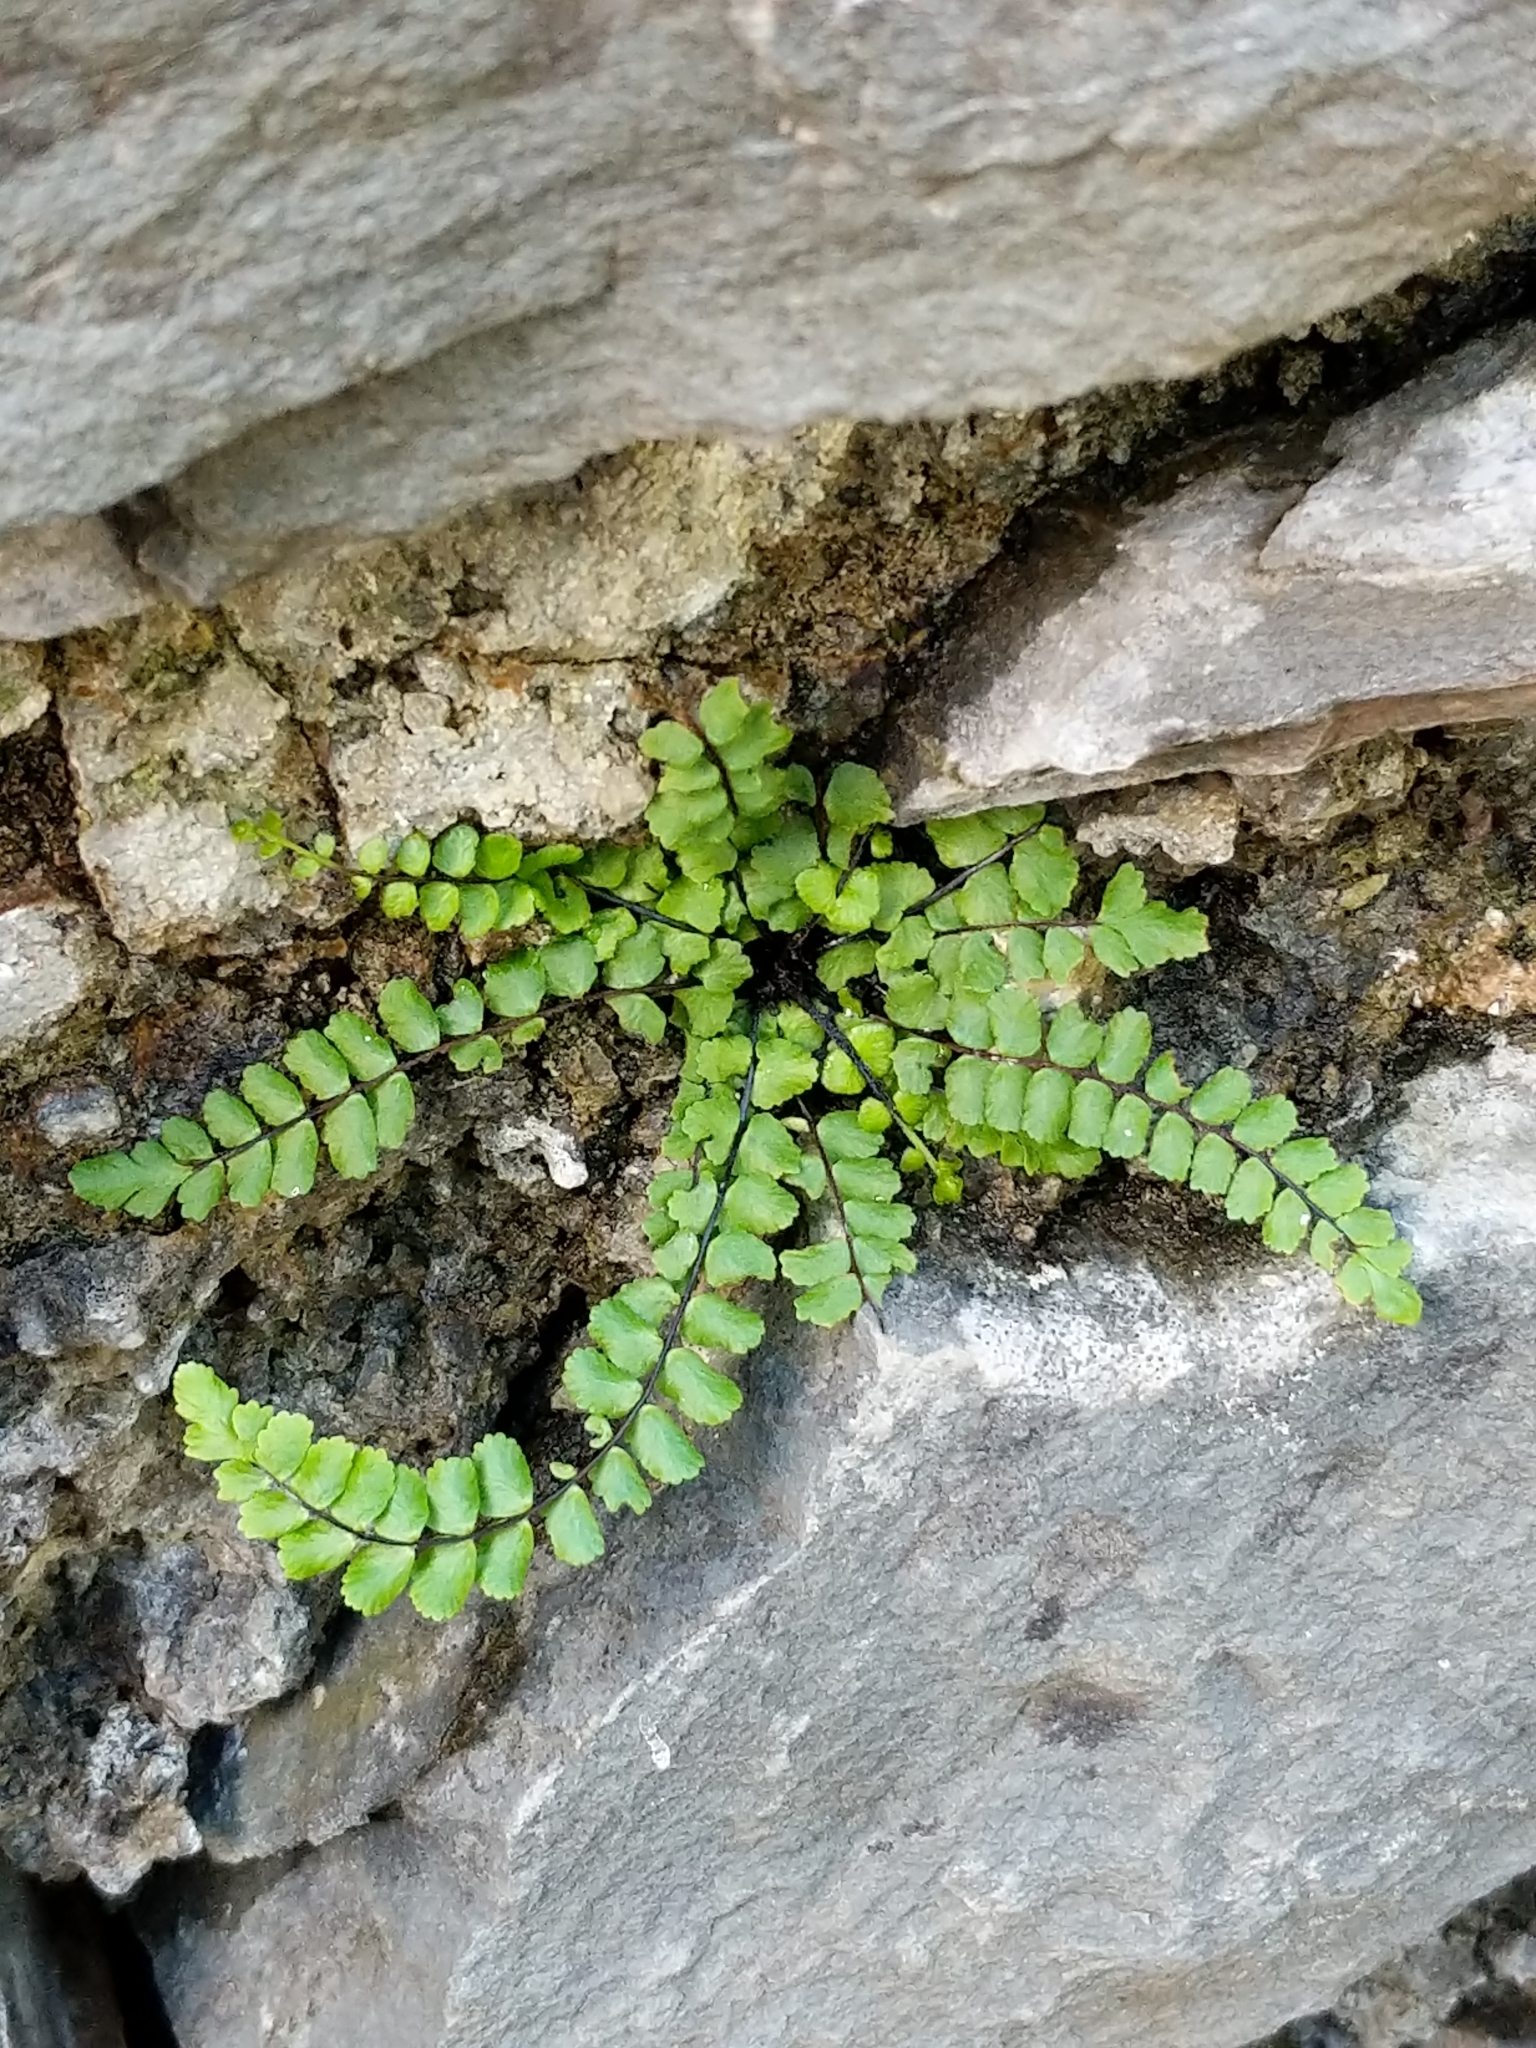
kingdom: Plantae
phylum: Tracheophyta
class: Polypodiopsida
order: Polypodiales
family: Aspleniaceae
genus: Asplenium
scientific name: Asplenium trichomanes
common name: Maidenhair spleenwort
